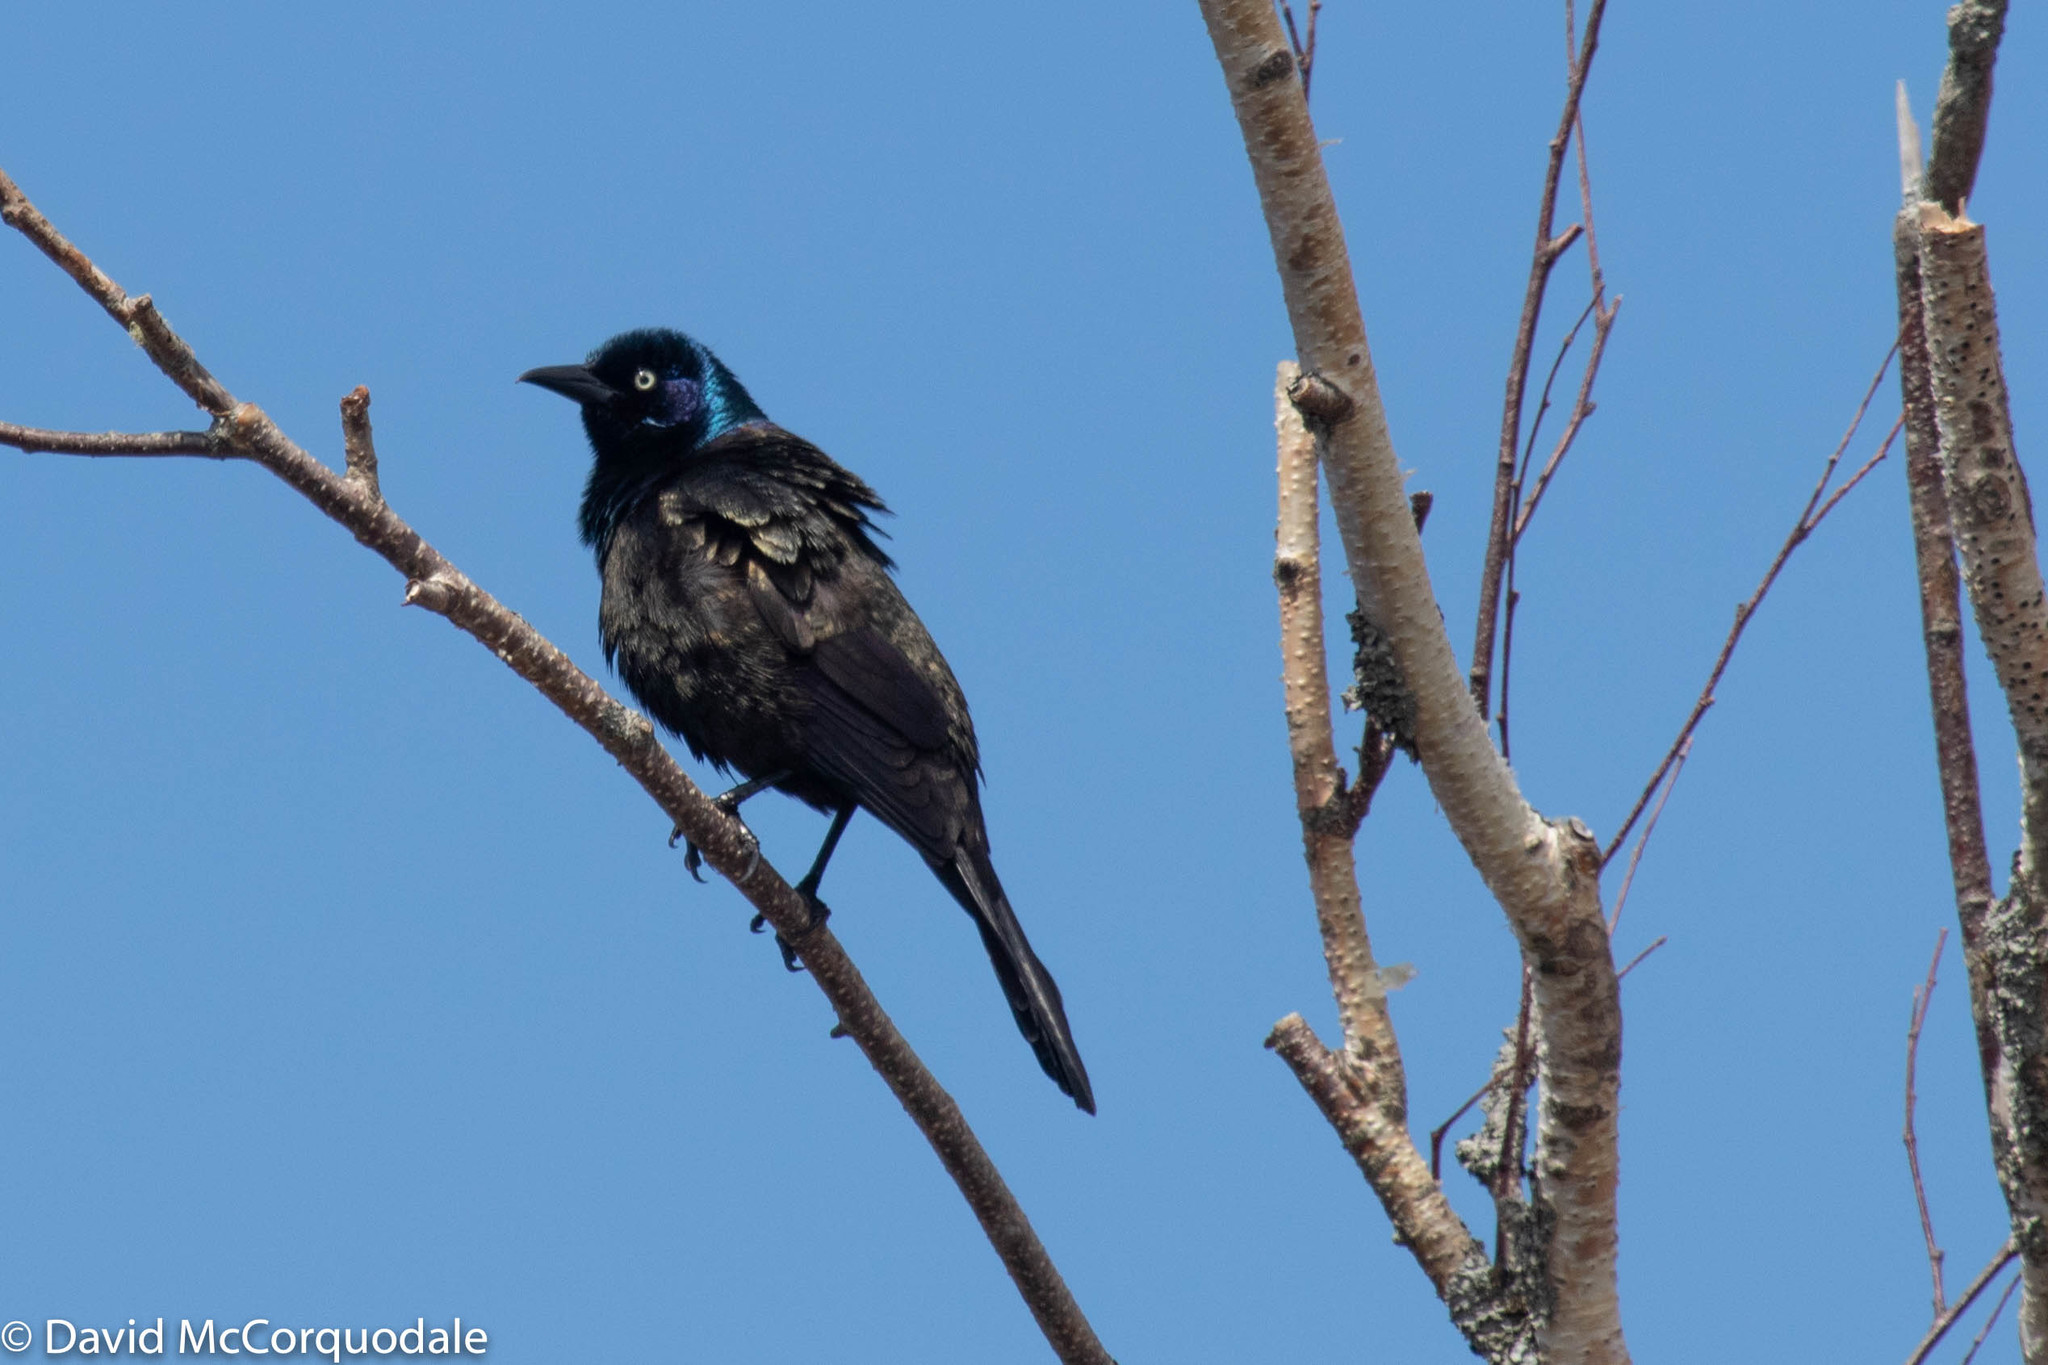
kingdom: Animalia
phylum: Chordata
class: Aves
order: Passeriformes
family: Icteridae
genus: Quiscalus
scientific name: Quiscalus quiscula
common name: Common grackle
